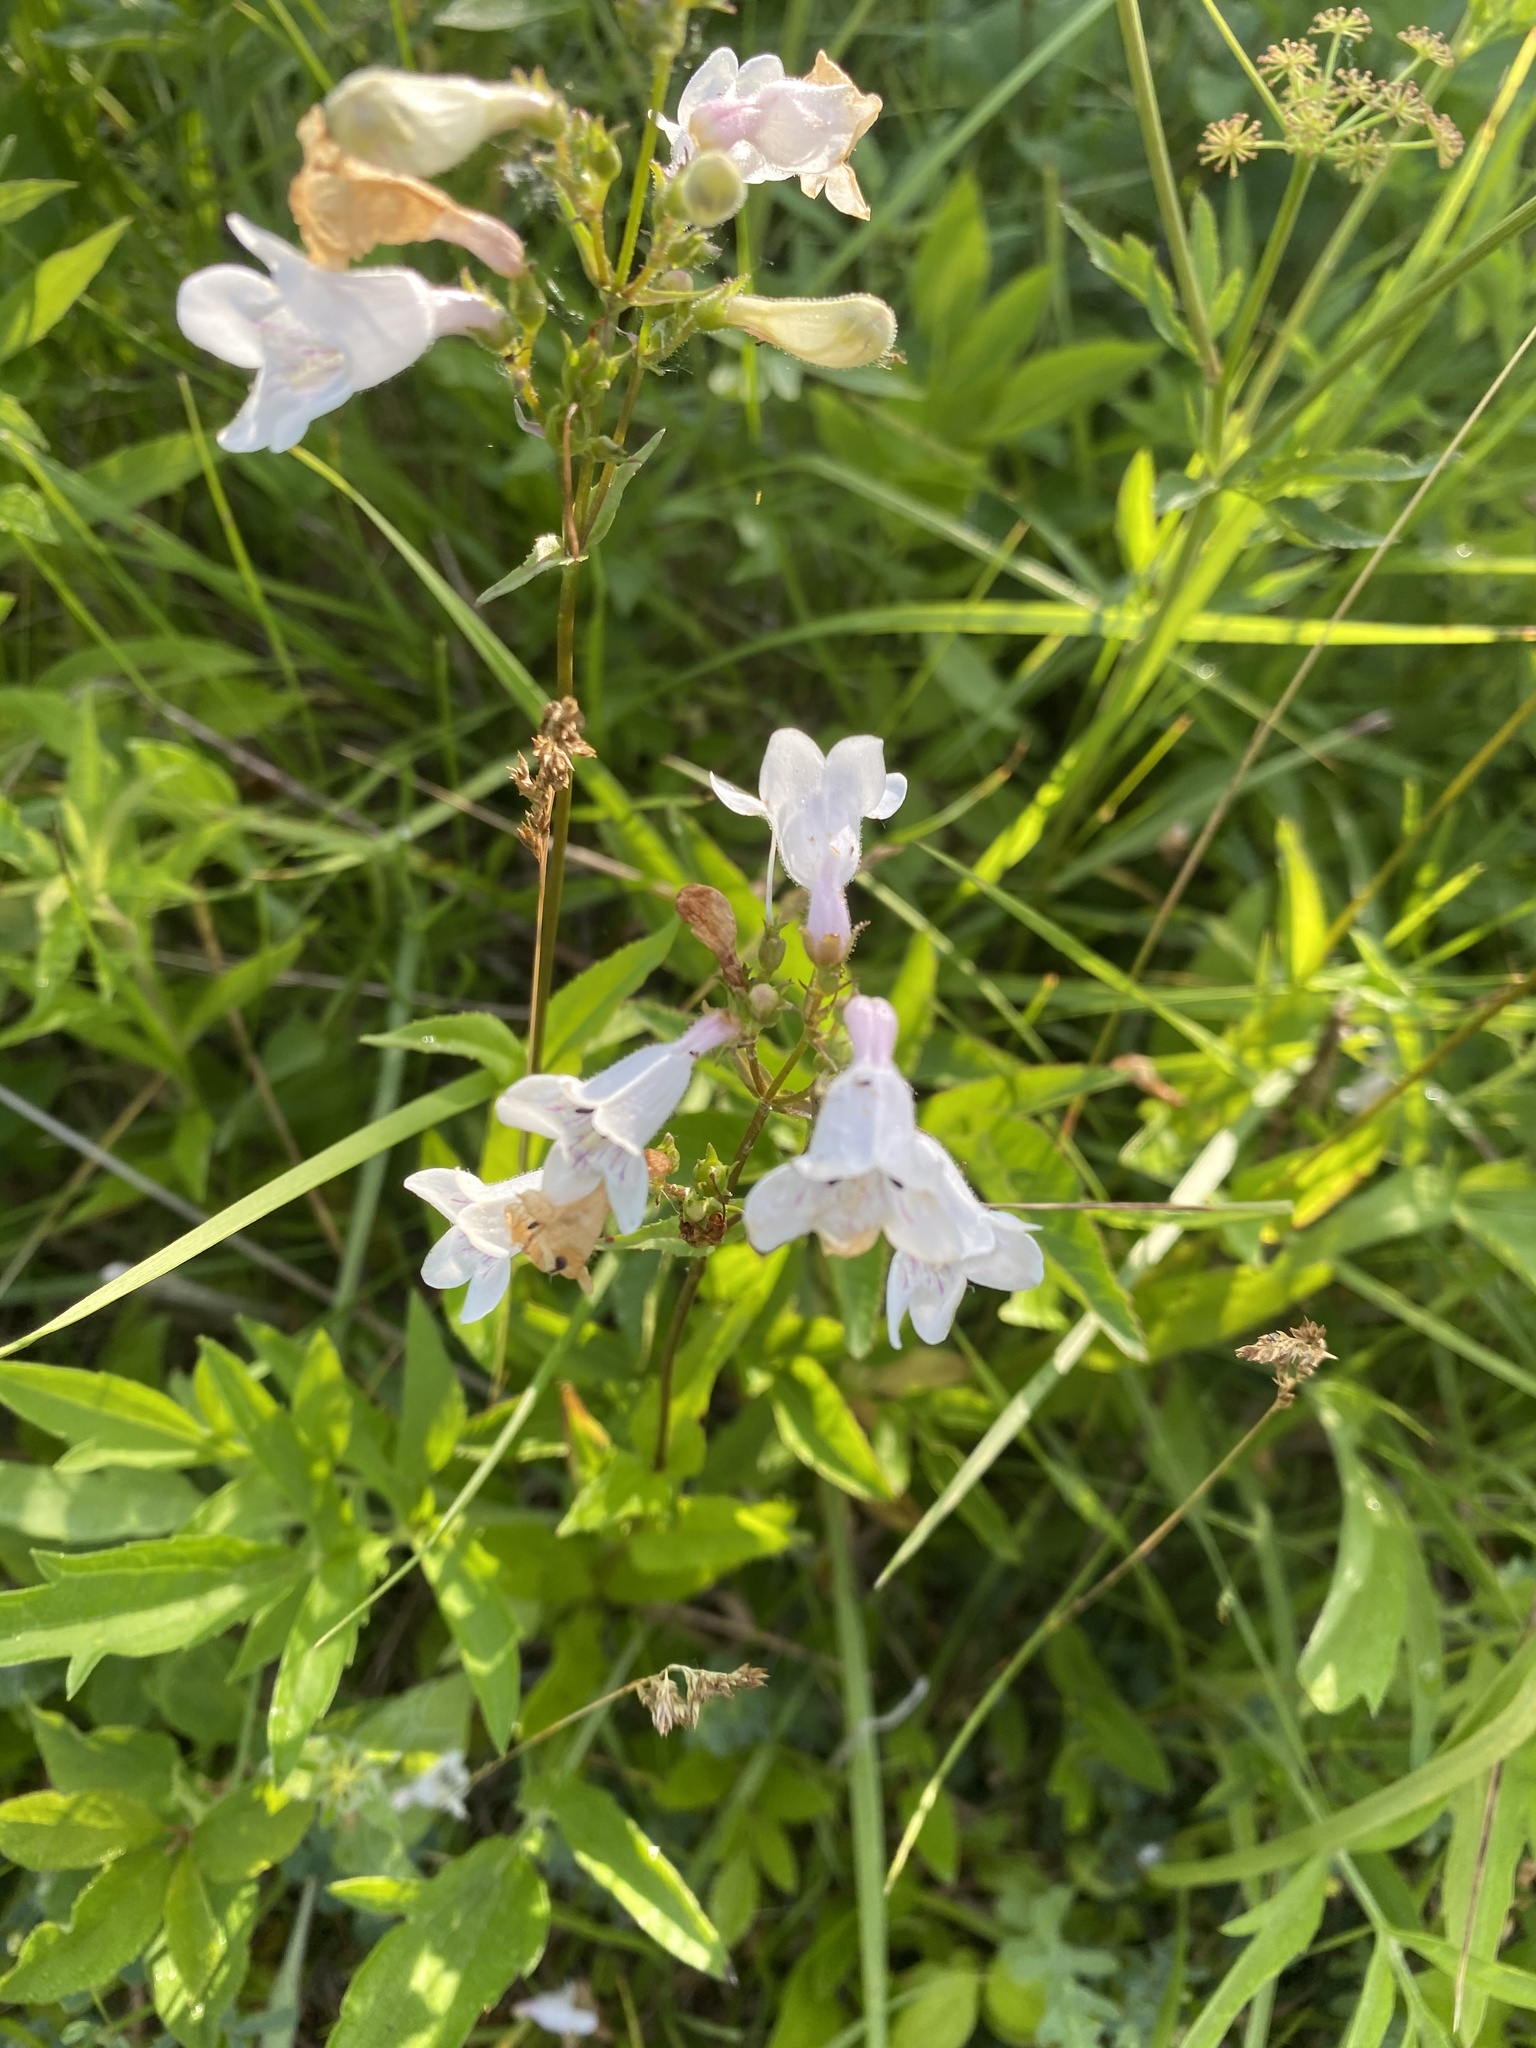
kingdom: Plantae
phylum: Tracheophyta
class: Magnoliopsida
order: Lamiales
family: Plantaginaceae
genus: Penstemon
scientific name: Penstemon digitalis
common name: Foxglove beardtongue
